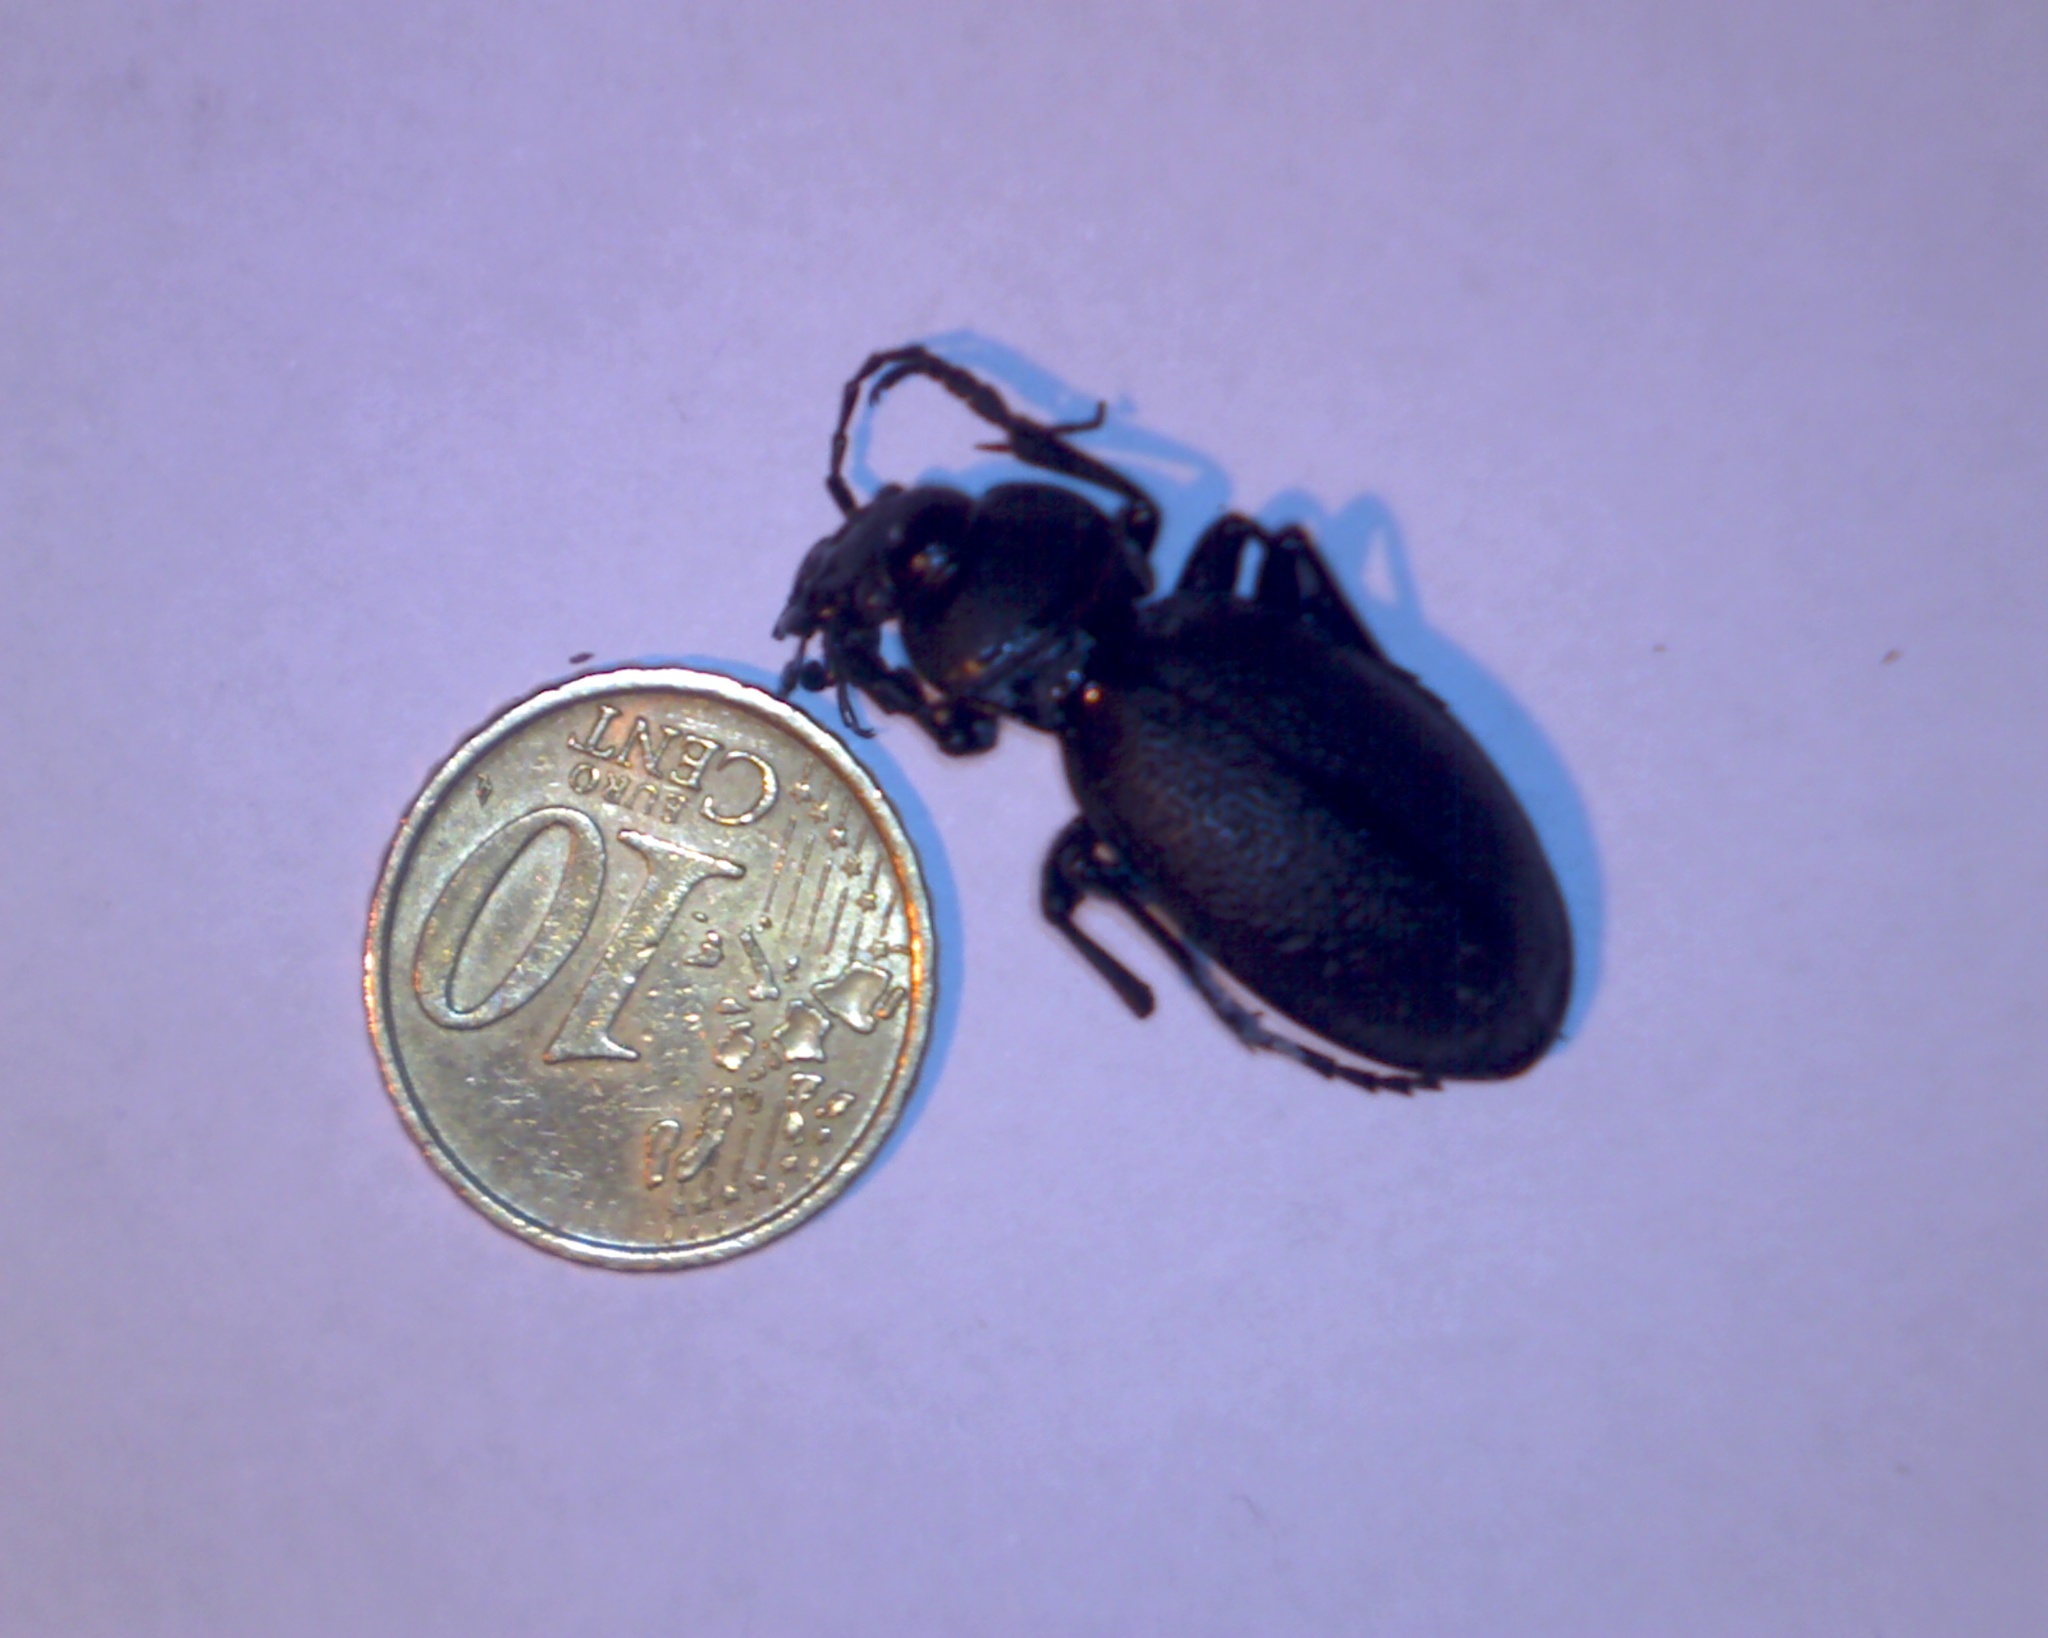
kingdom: Animalia
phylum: Arthropoda
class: Insecta
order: Coleoptera
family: Carabidae
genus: Carabus
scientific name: Carabus coriaceus
